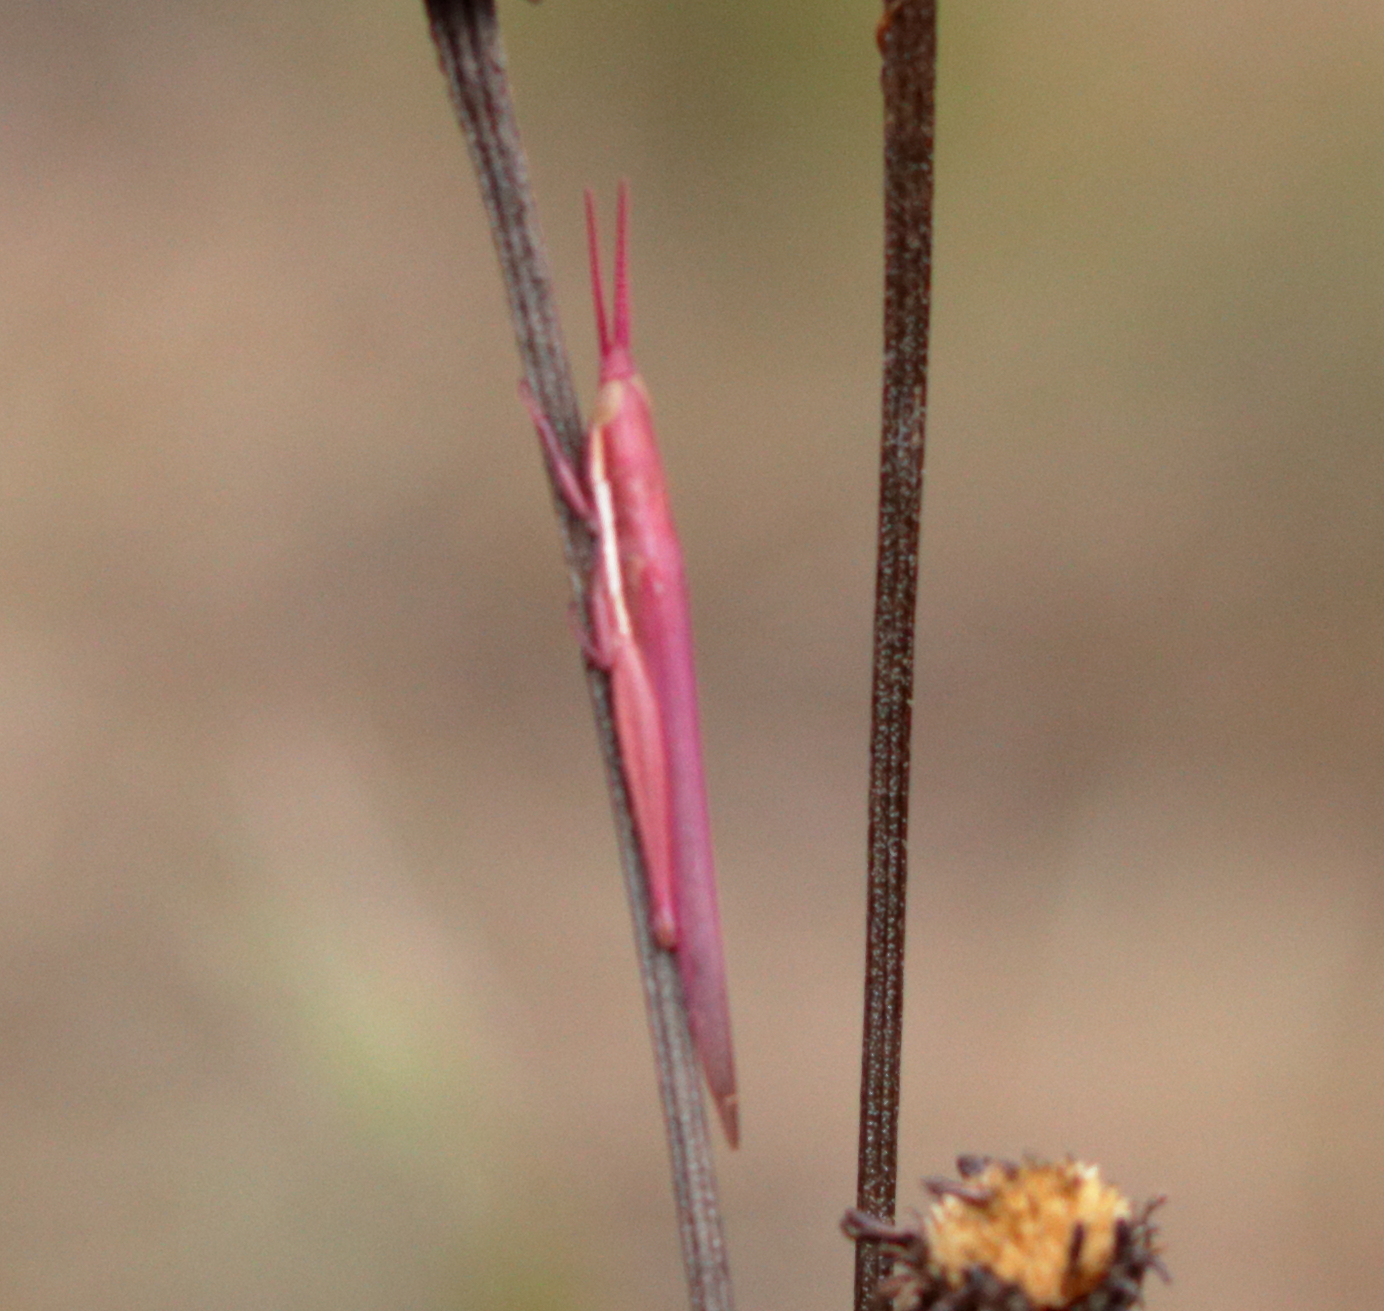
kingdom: Animalia
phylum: Arthropoda
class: Insecta
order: Orthoptera
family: Acrididae
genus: Leptysma
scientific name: Leptysma marginicollis
